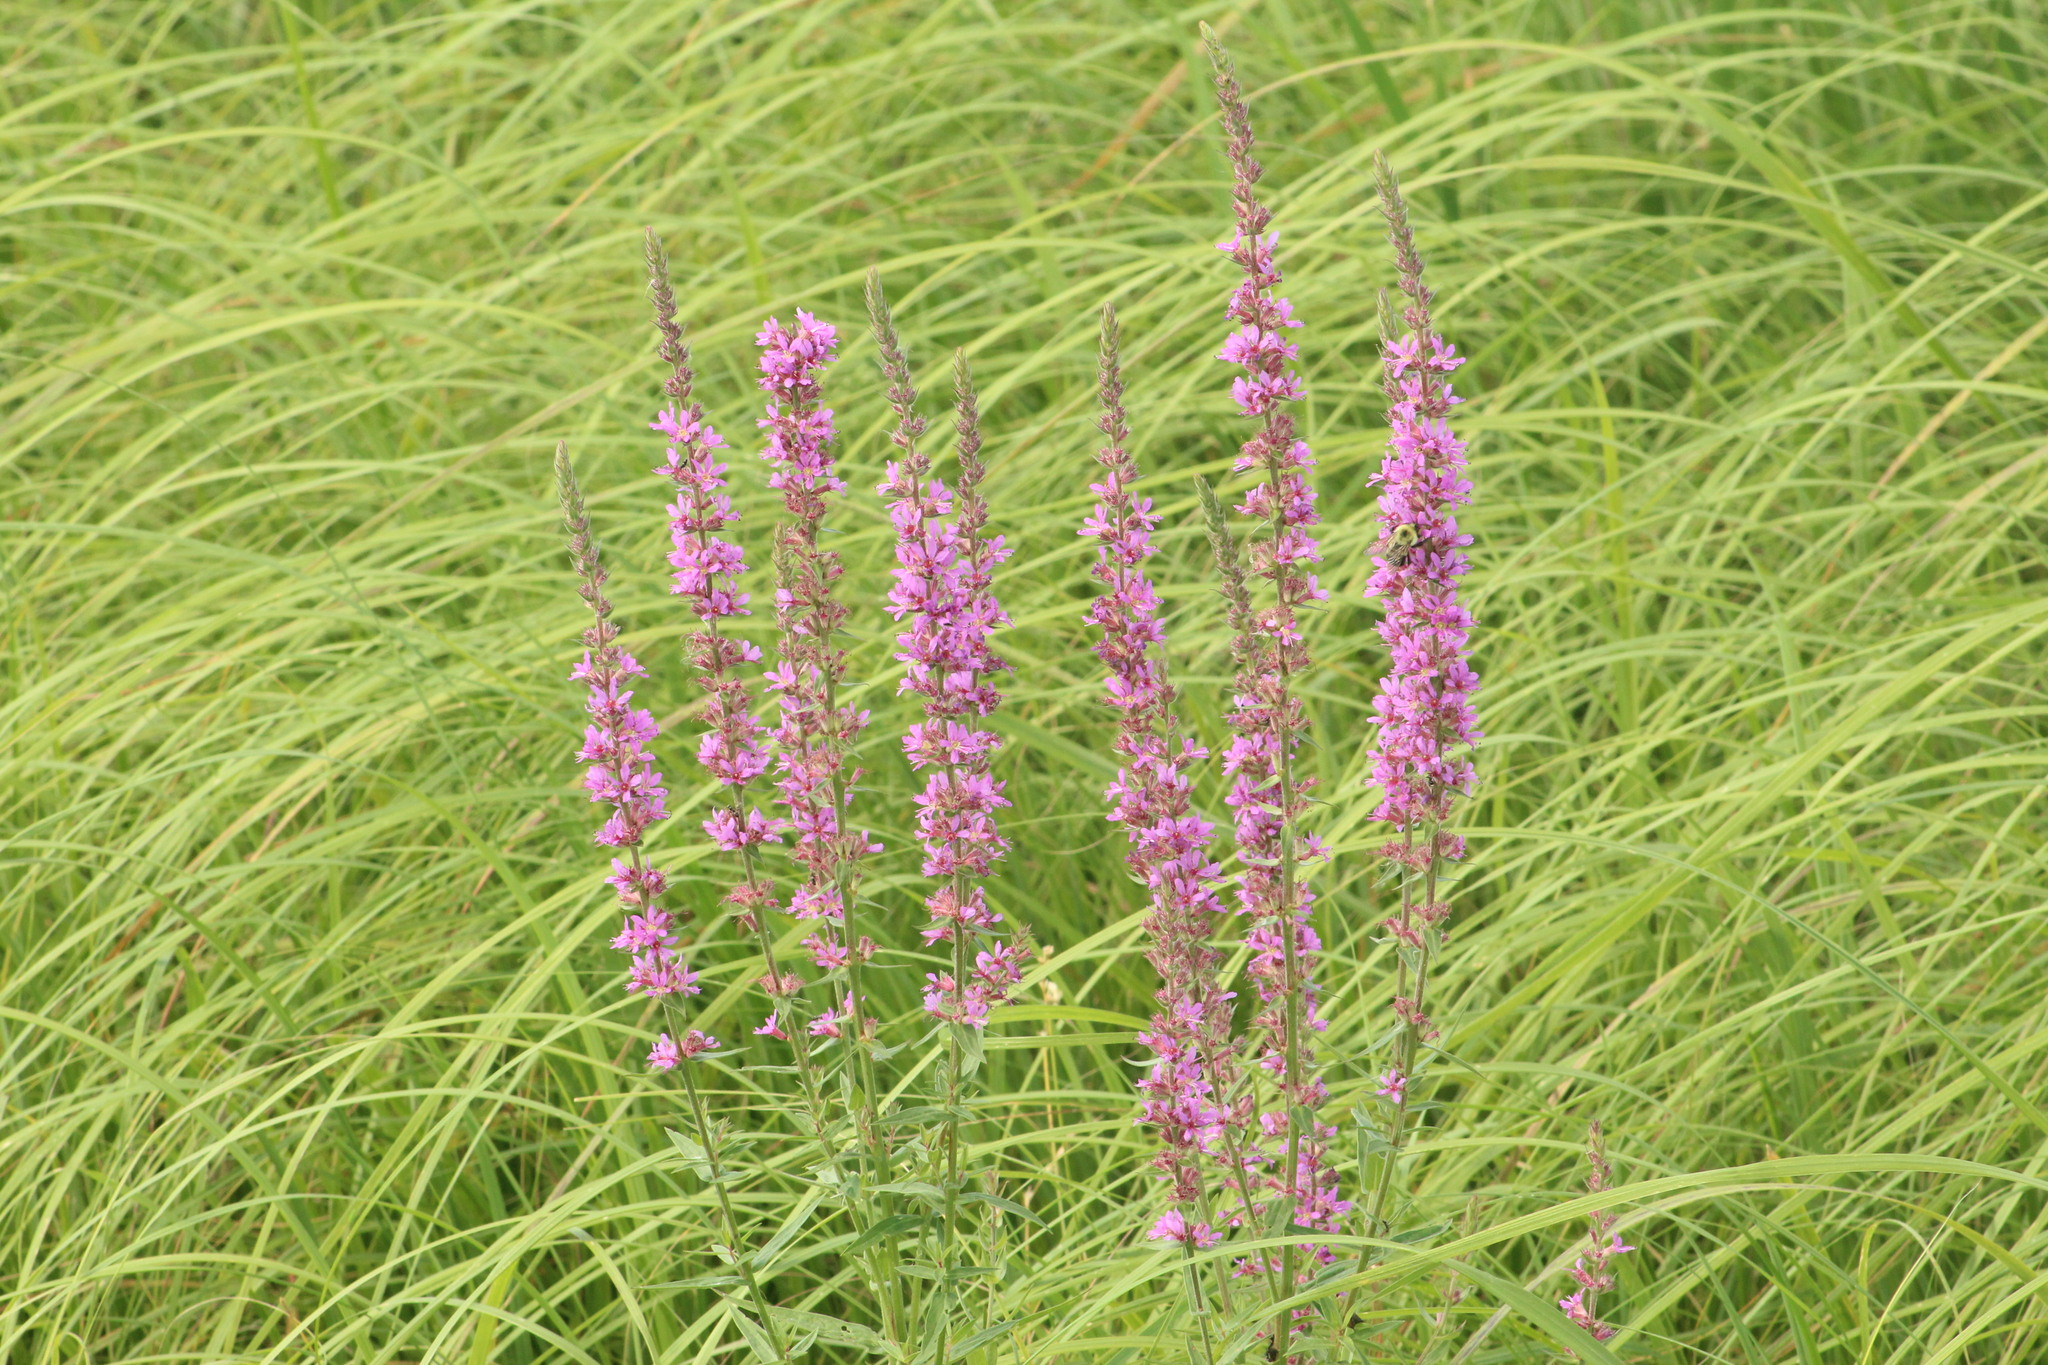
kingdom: Plantae
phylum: Tracheophyta
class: Magnoliopsida
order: Myrtales
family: Lythraceae
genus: Lythrum
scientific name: Lythrum salicaria
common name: Purple loosestrife
